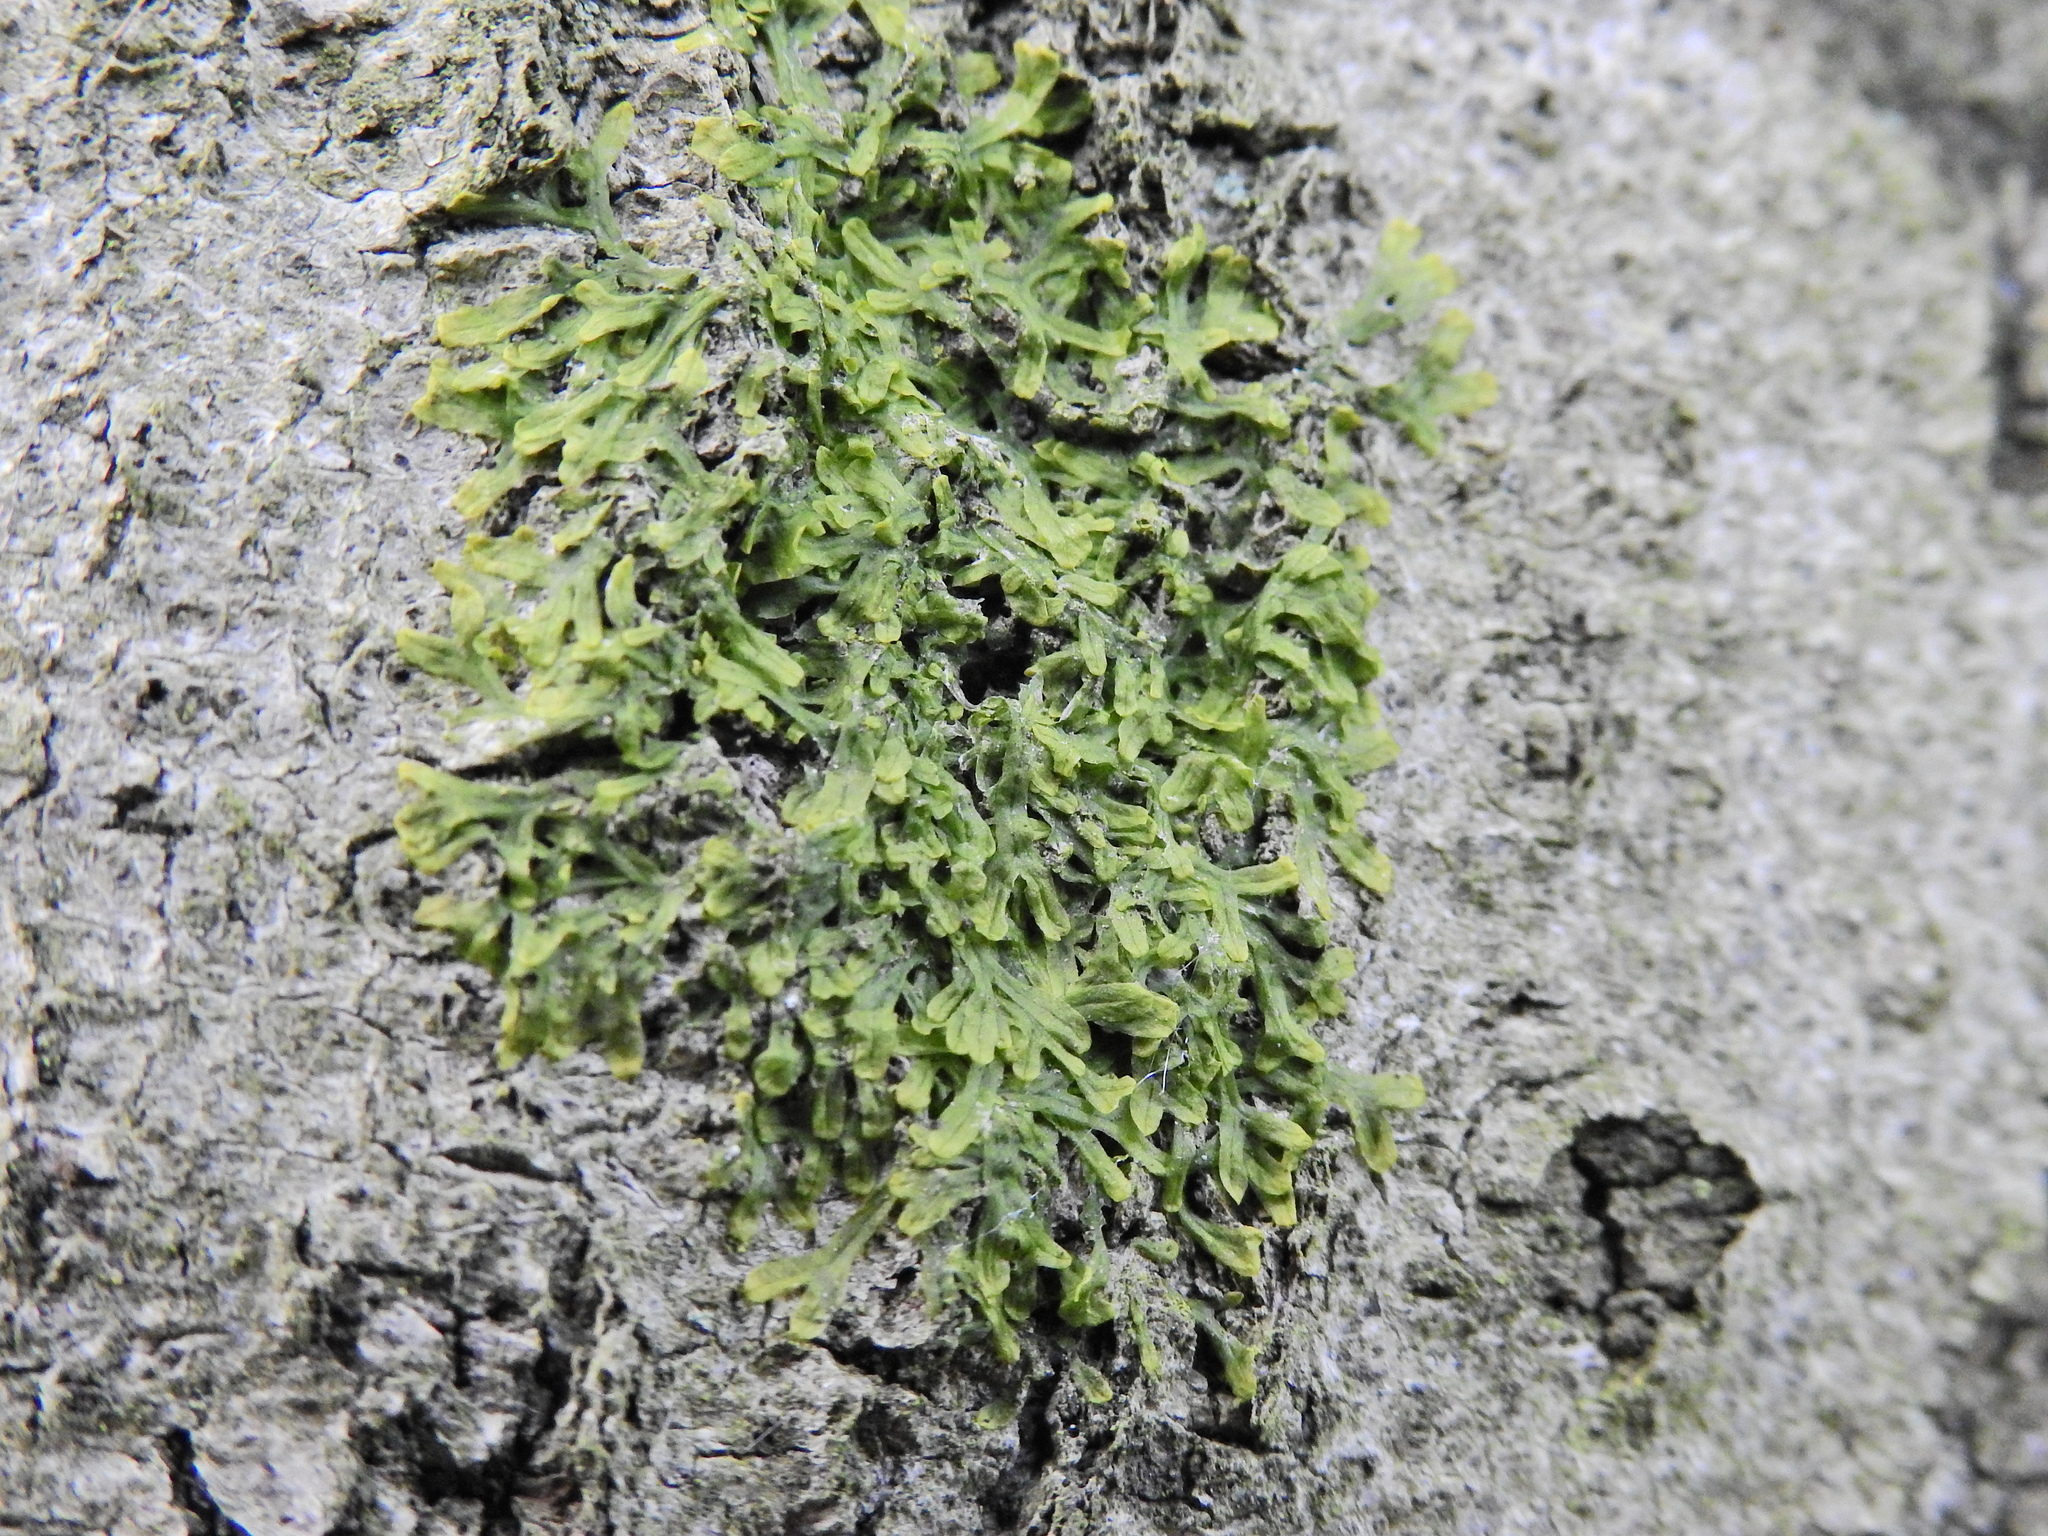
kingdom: Plantae
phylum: Marchantiophyta
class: Jungermanniopsida
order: Metzgeriales
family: Metzgeriaceae
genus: Metzgeria
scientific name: Metzgeria furcata
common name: Forked veilwort
